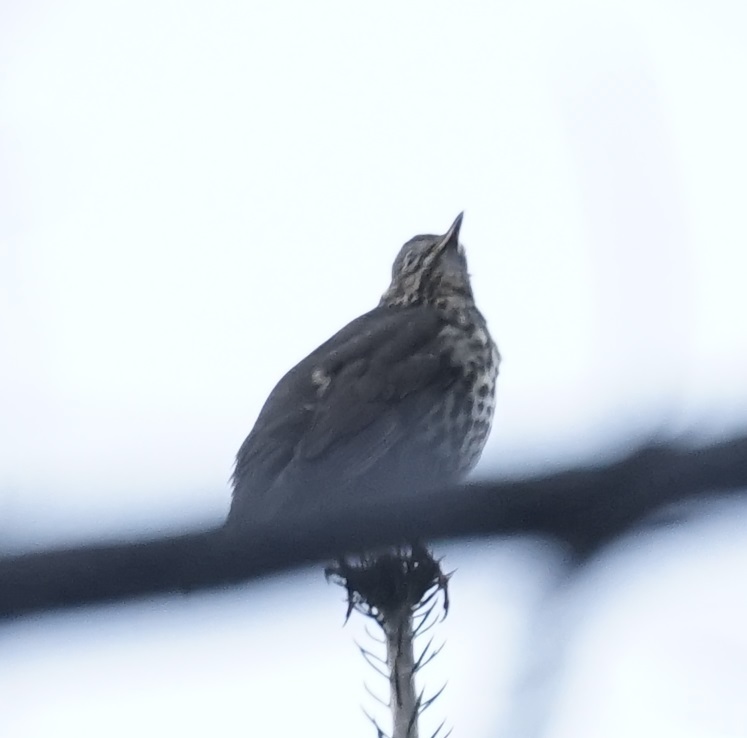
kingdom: Animalia
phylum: Chordata
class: Aves
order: Passeriformes
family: Turdidae
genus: Turdus
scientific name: Turdus philomelos
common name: Song thrush
